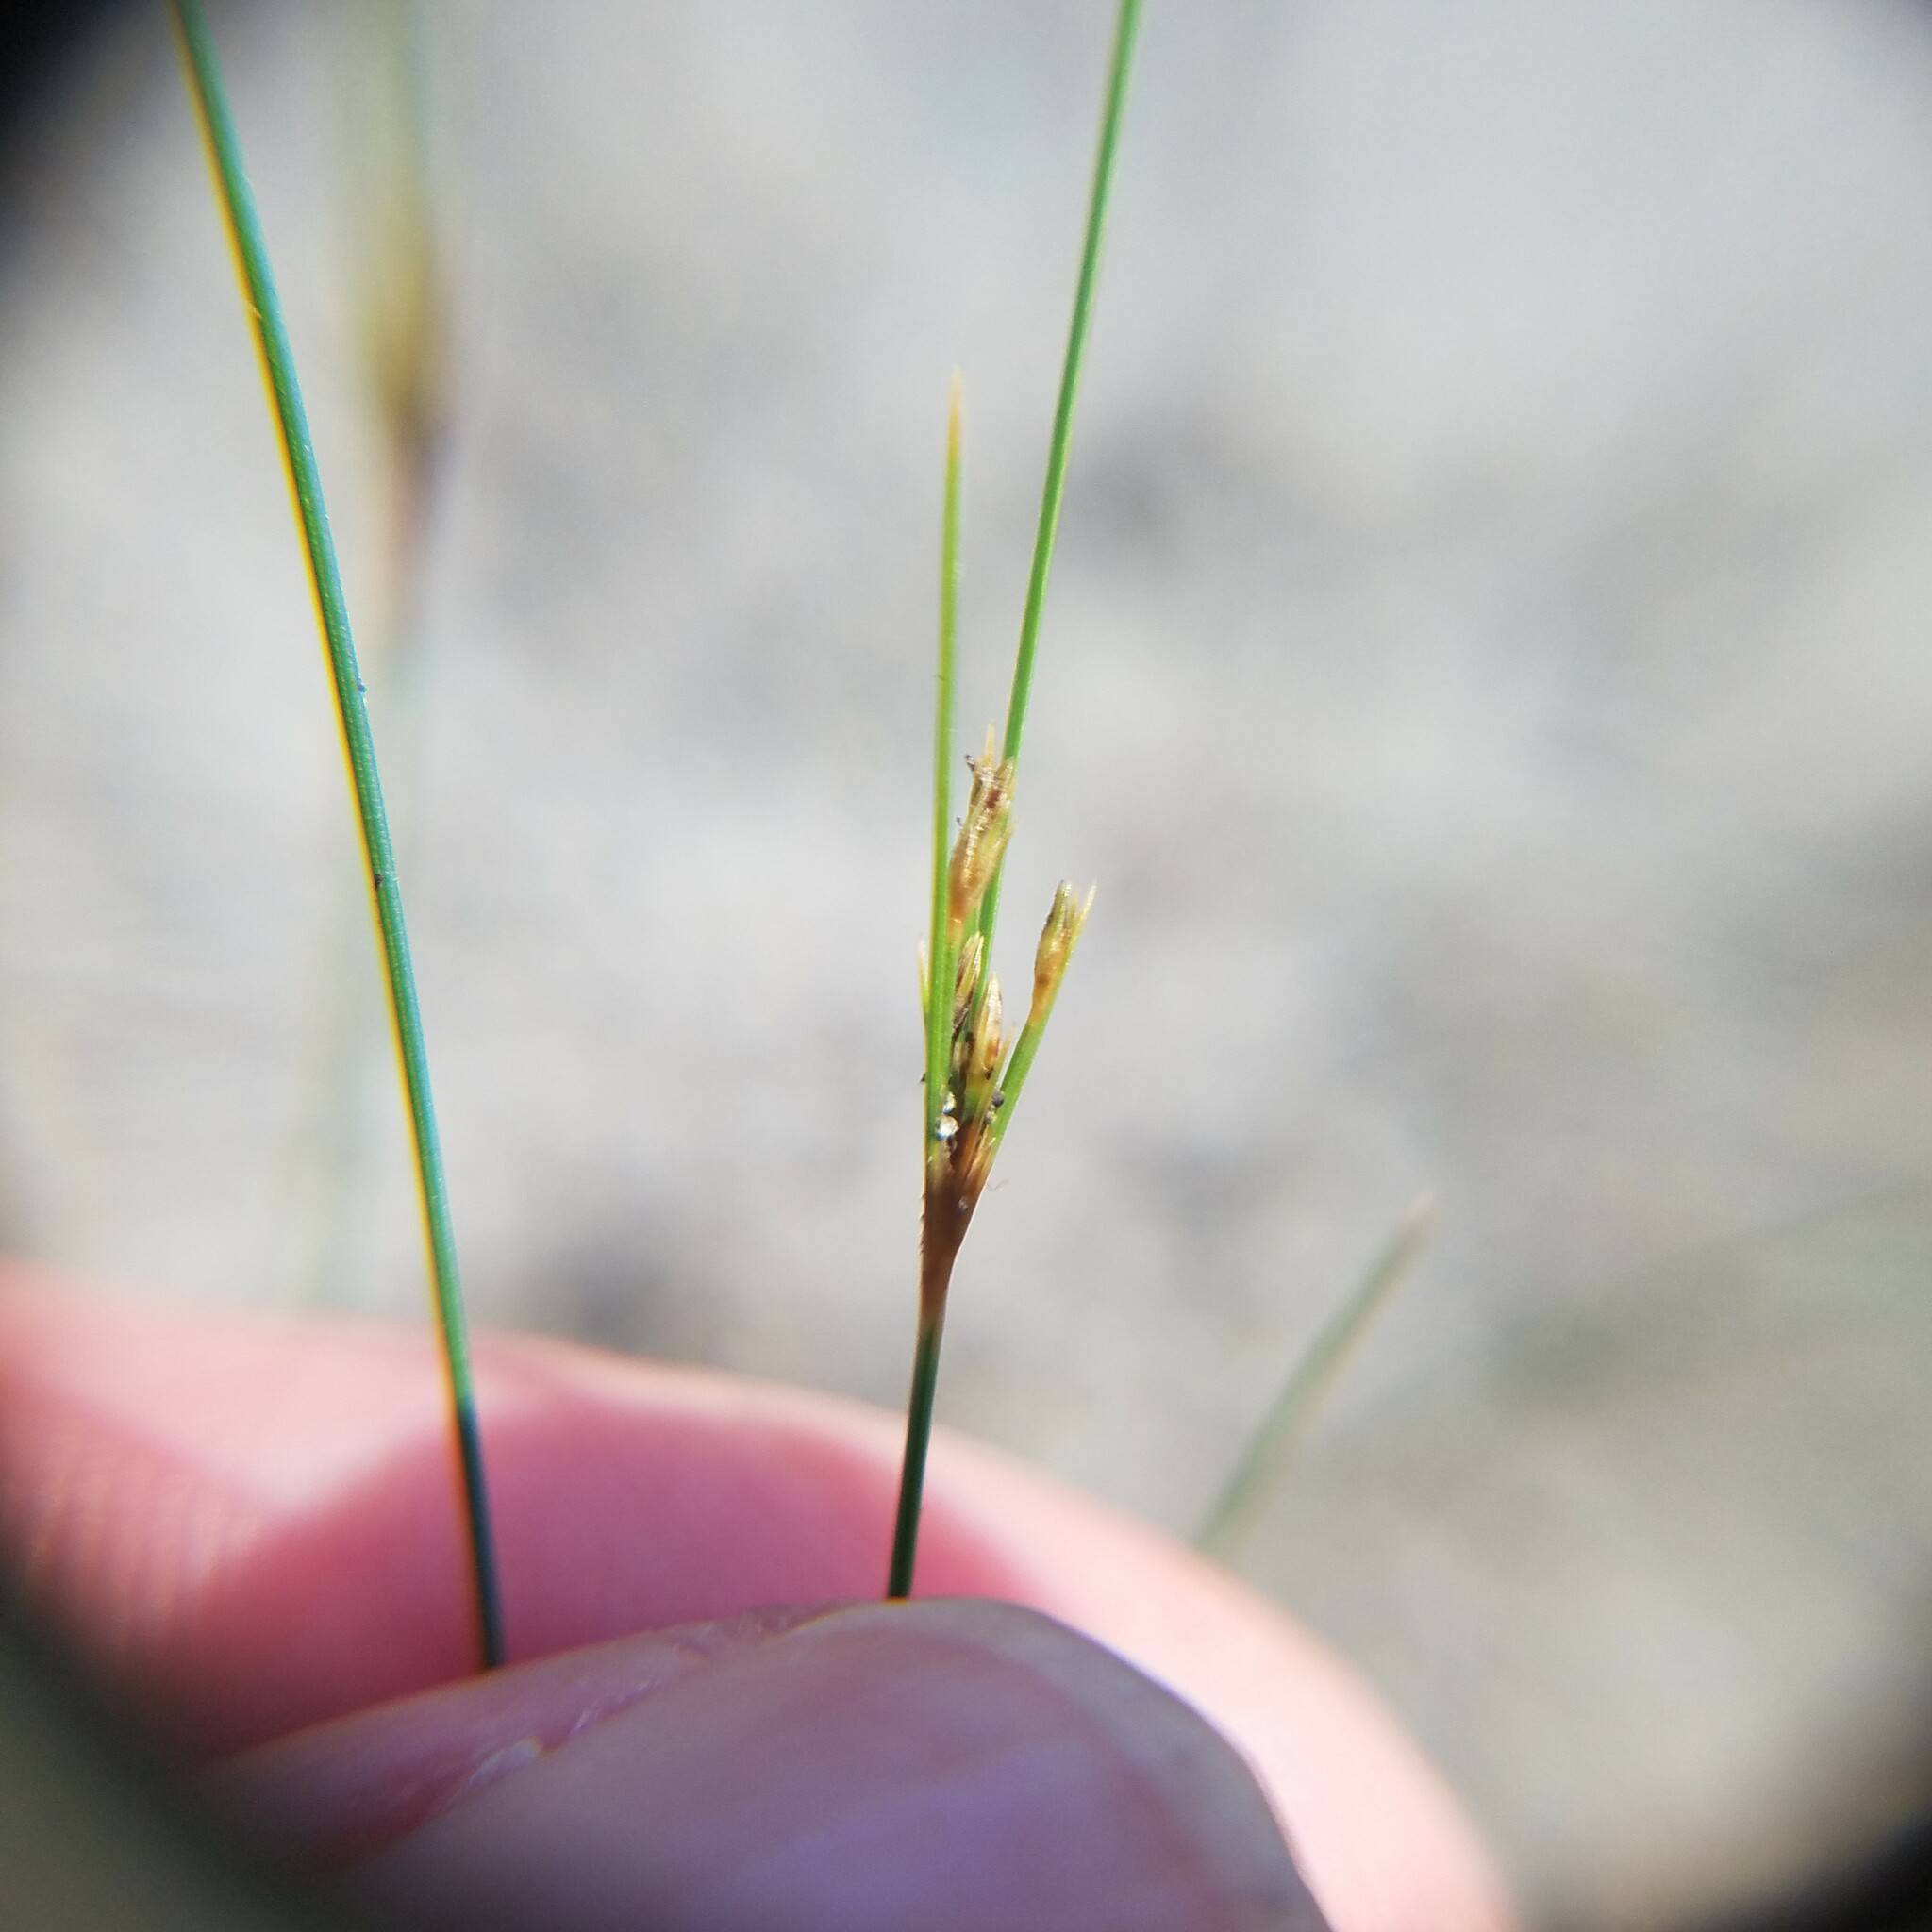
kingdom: Plantae
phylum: Tracheophyta
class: Liliopsida
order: Poales
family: Cyperaceae
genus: Bulbostylis
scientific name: Bulbostylis ciliatifolia
